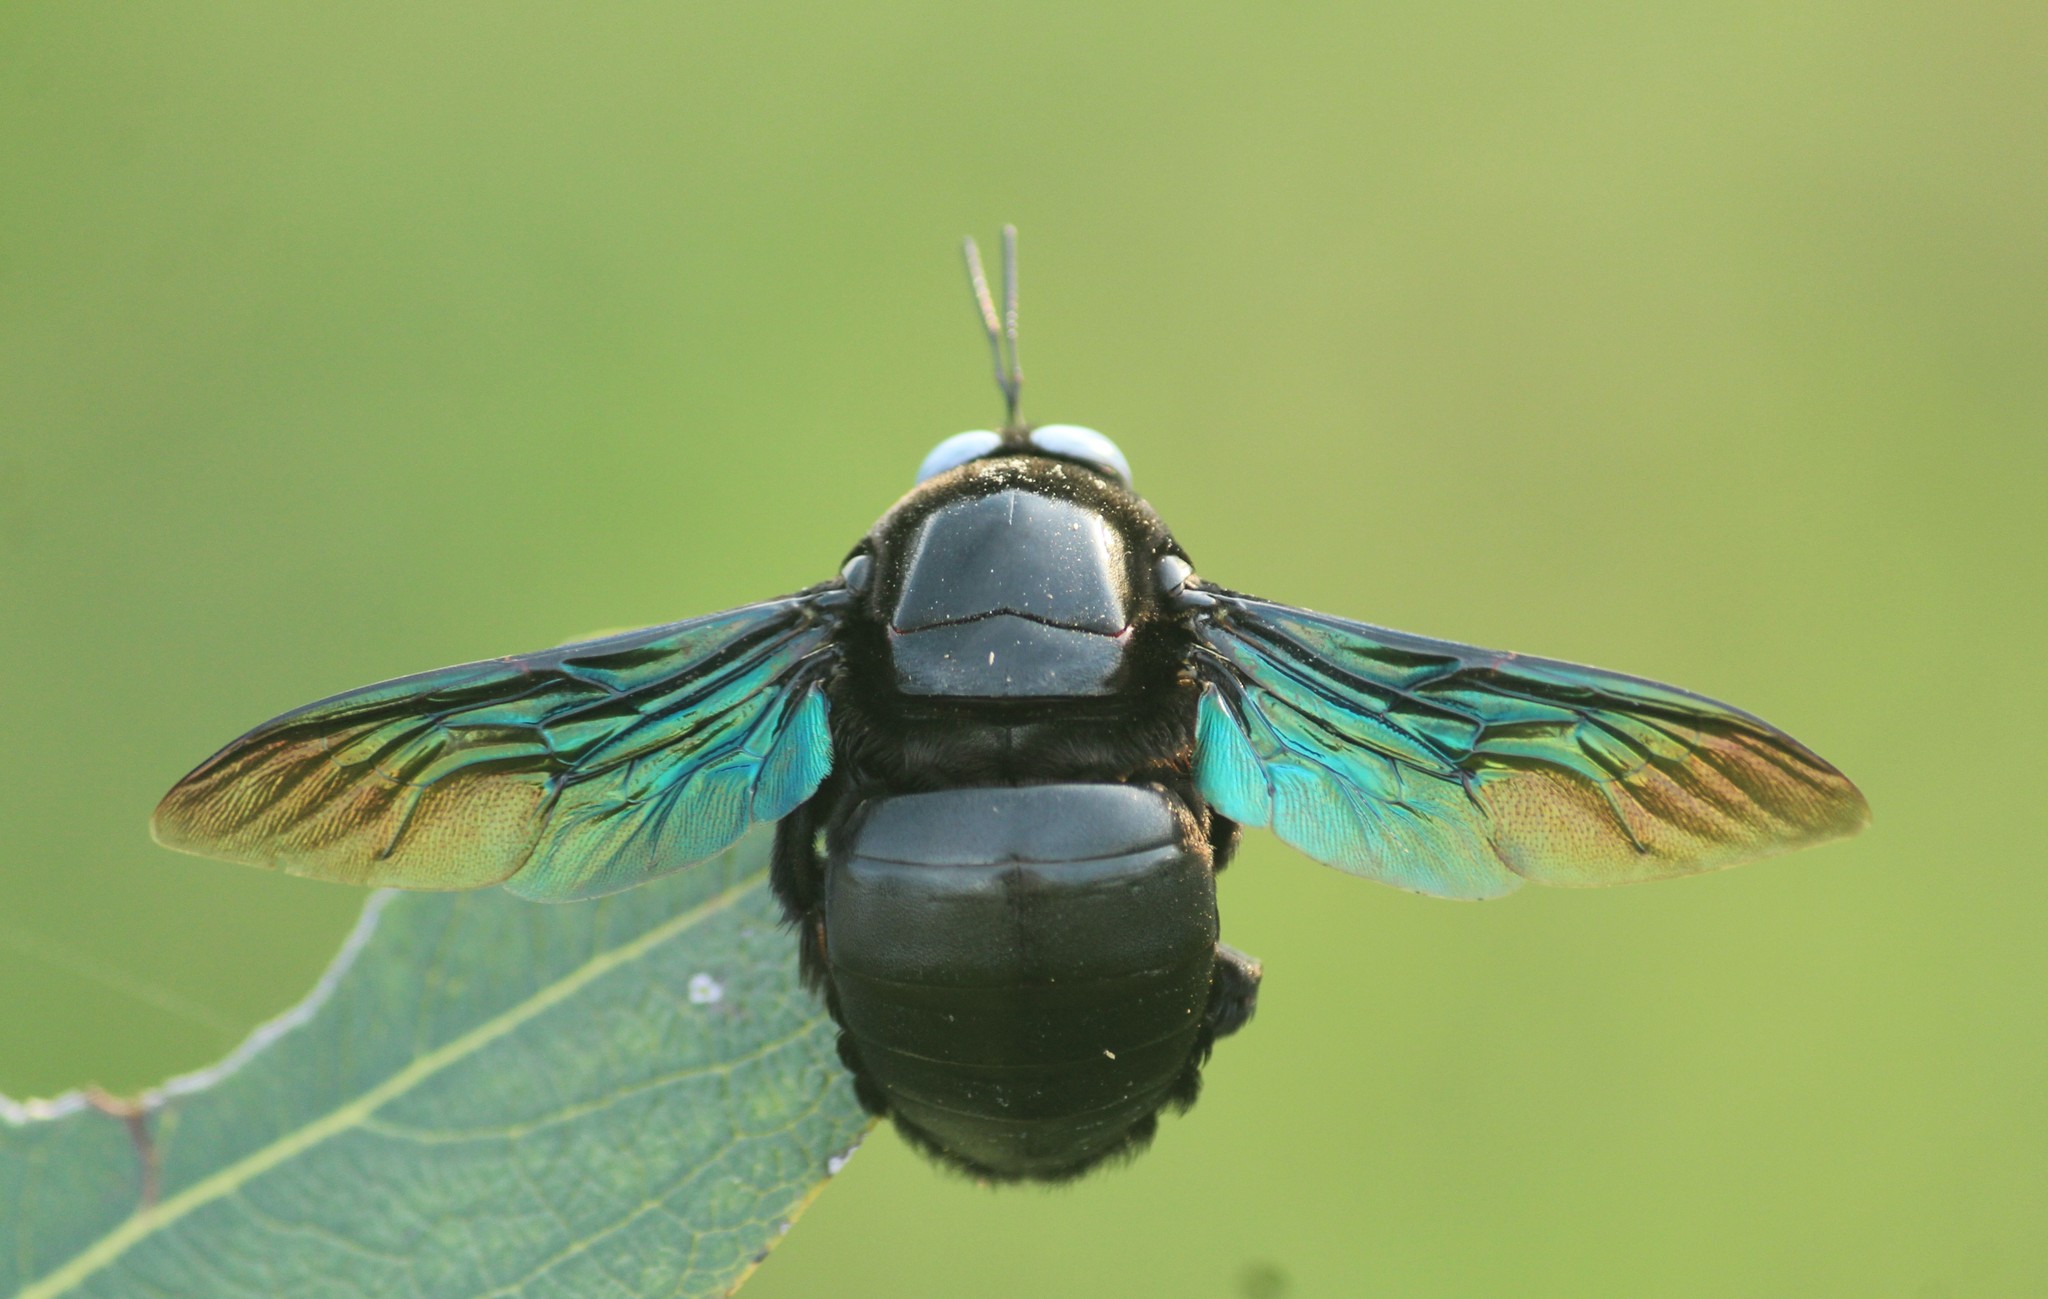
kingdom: Animalia
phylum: Arthropoda
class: Insecta
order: Hymenoptera
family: Apidae
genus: Xylocopa
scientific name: Xylocopa tenuiscapa
